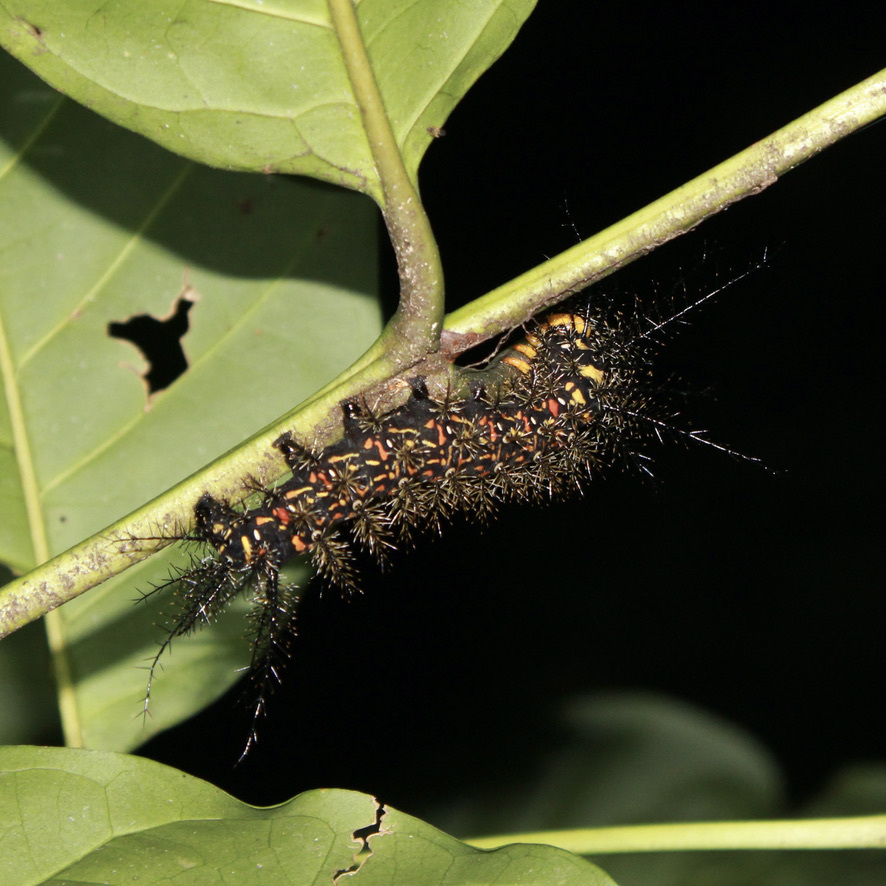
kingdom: Animalia
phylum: Arthropoda
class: Insecta
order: Lepidoptera
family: Saturniidae
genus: Pseudautomeris
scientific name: Pseudautomeris salmonea
